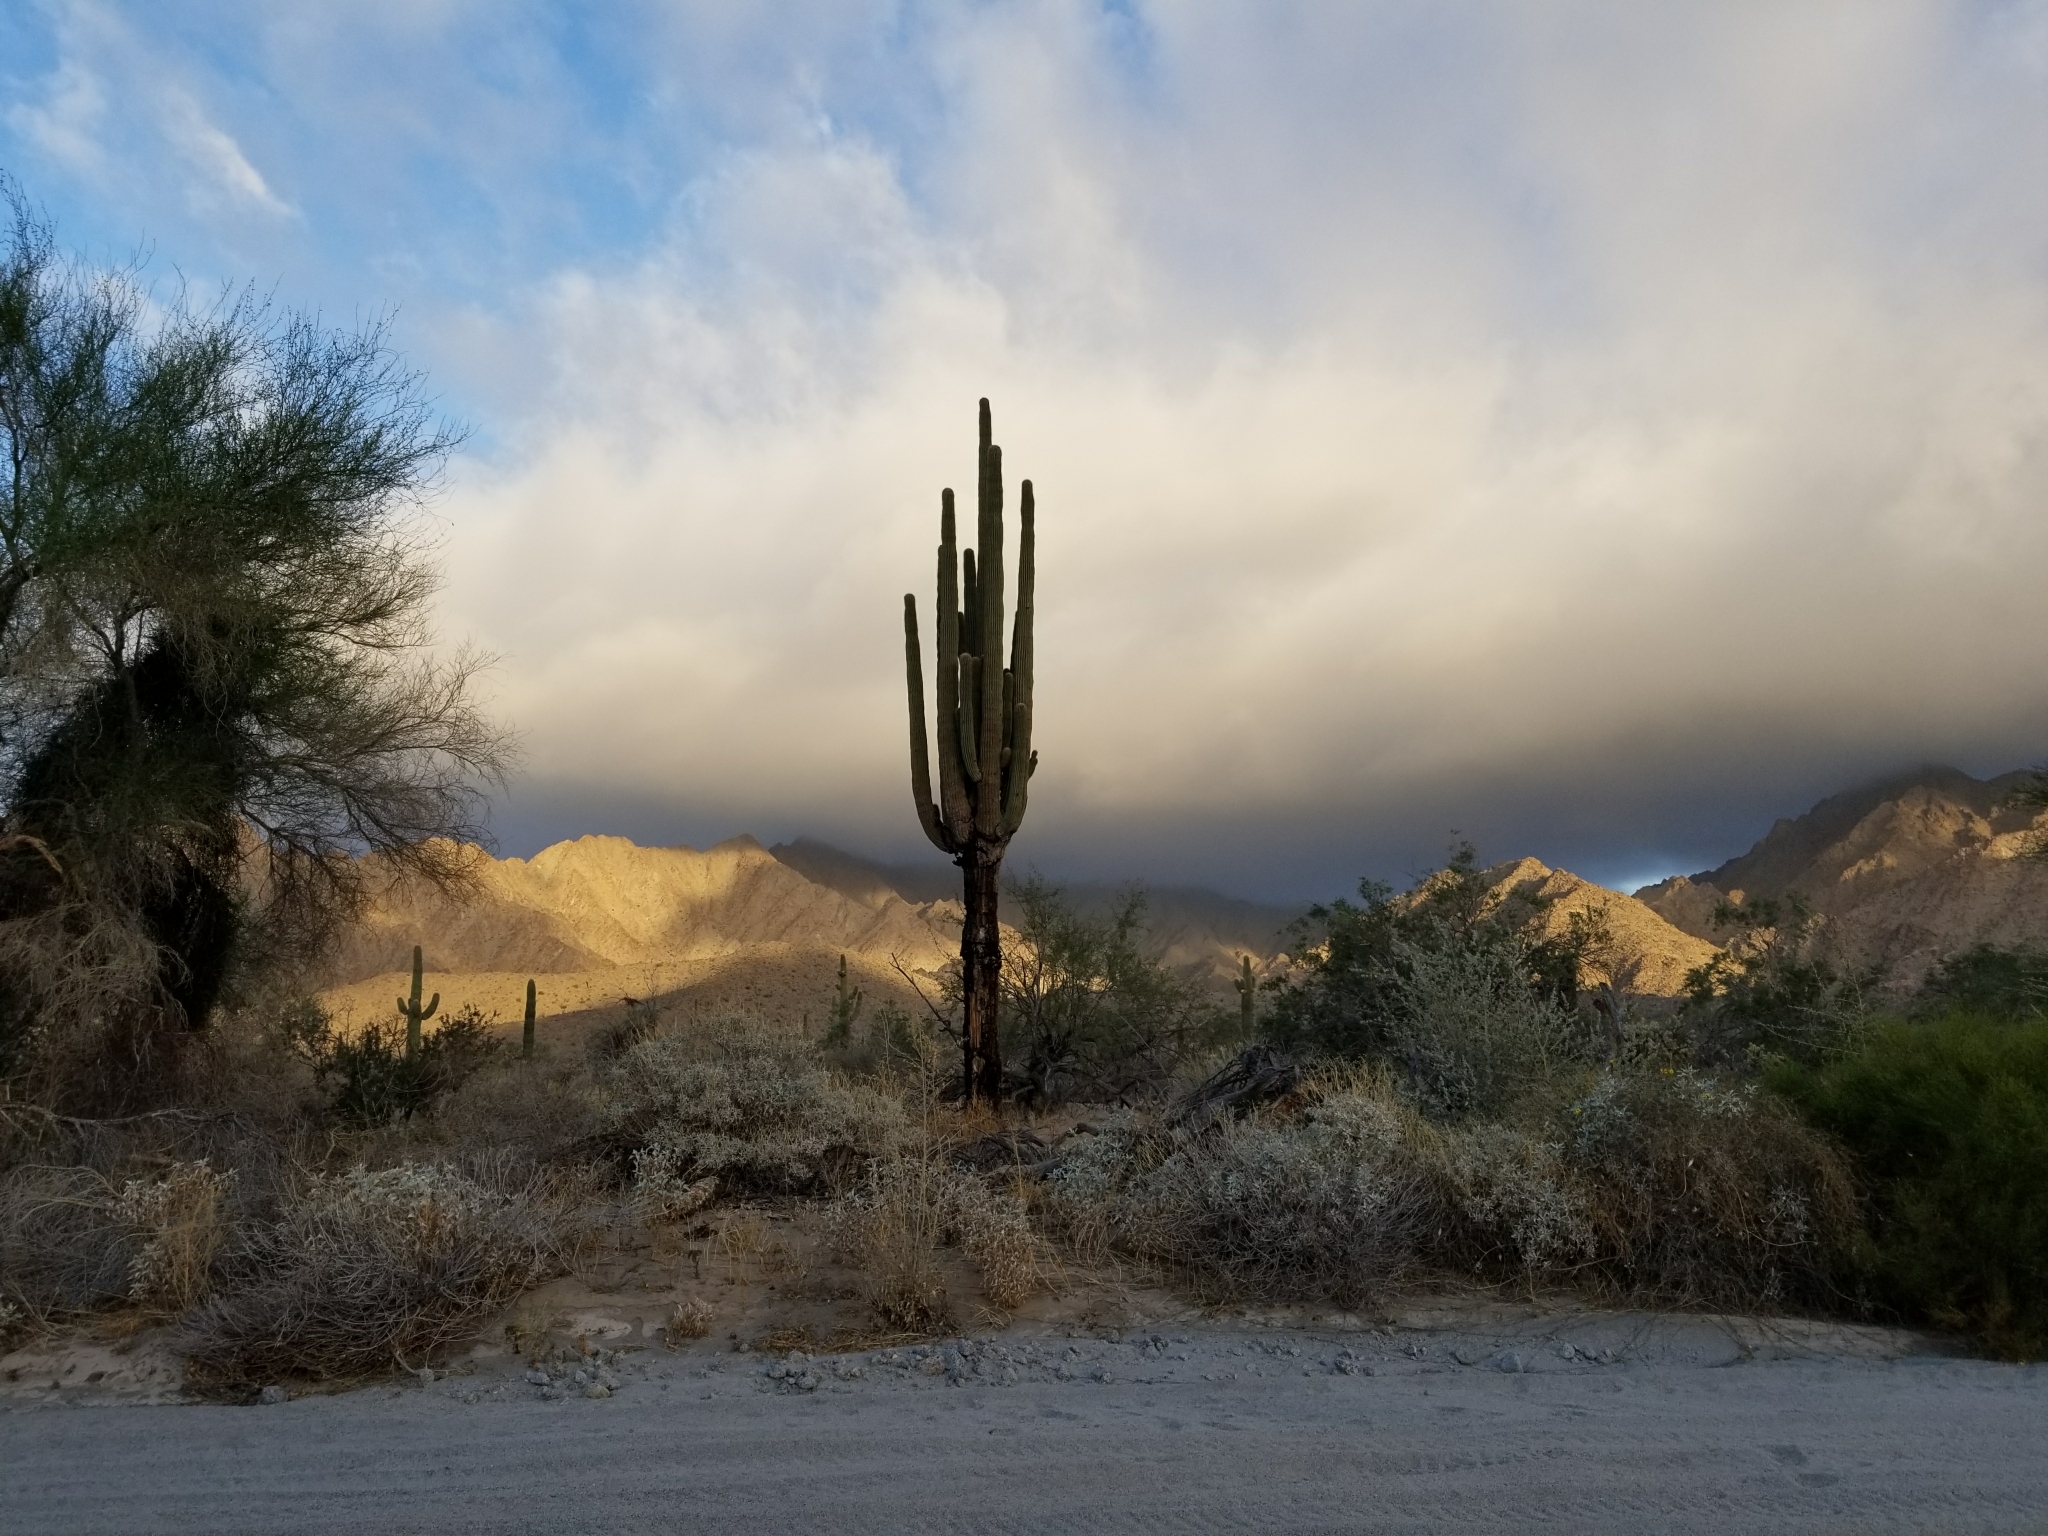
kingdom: Plantae
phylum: Tracheophyta
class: Magnoliopsida
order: Caryophyllales
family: Cactaceae
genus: Carnegiea
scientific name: Carnegiea gigantea
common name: Saguaro
